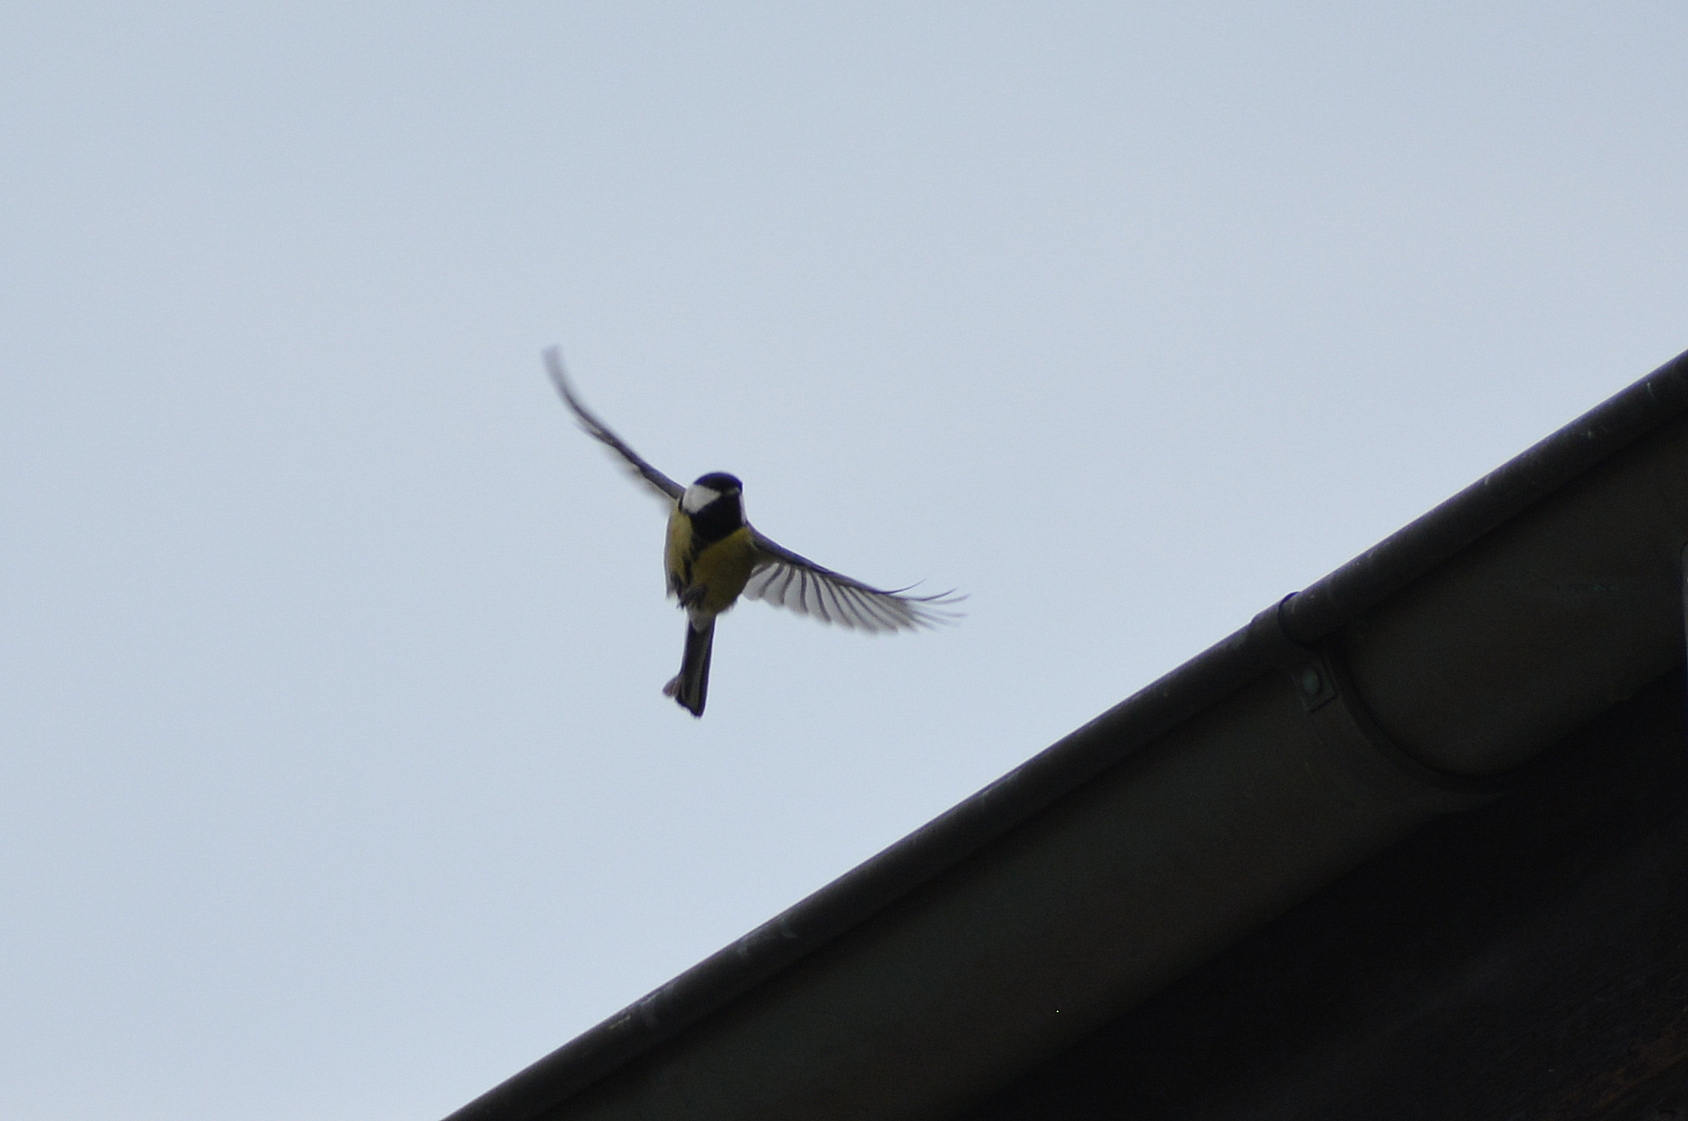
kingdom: Animalia
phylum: Chordata
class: Aves
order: Passeriformes
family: Paridae
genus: Parus
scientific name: Parus major
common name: Great tit
